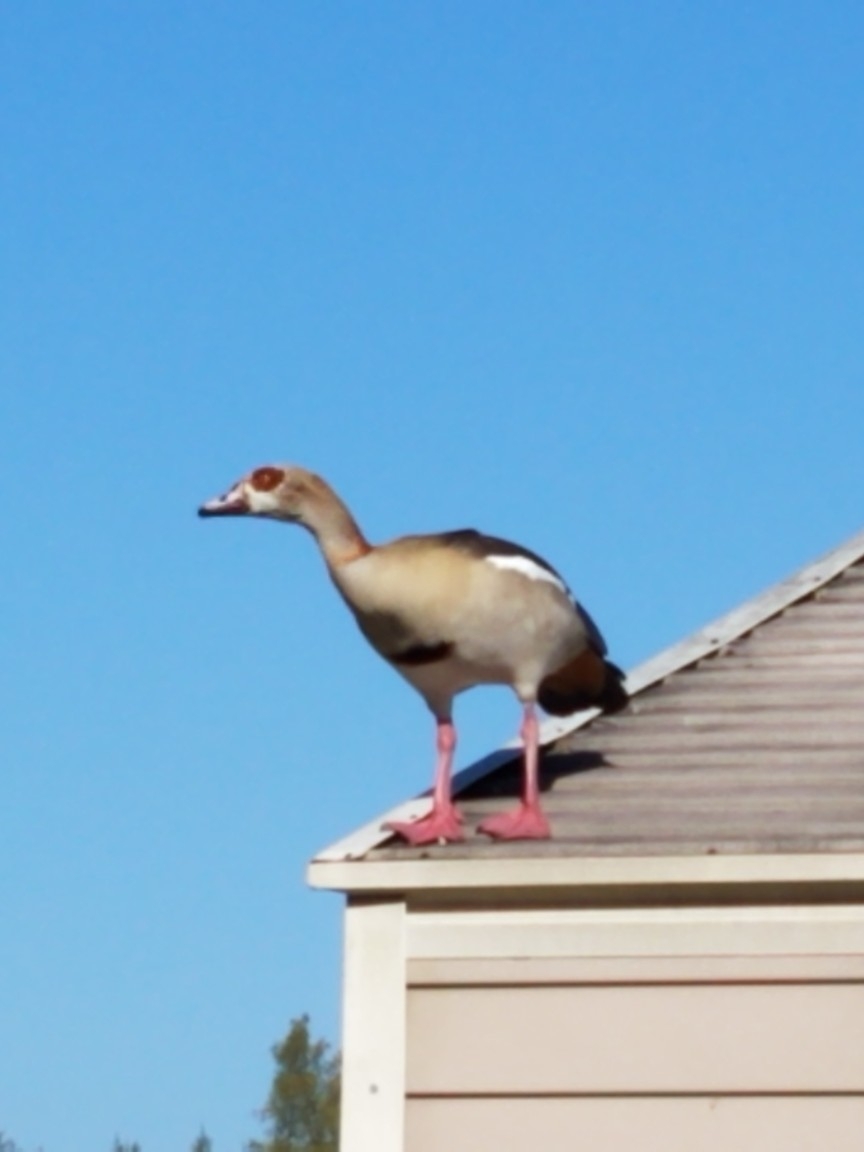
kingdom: Animalia
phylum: Chordata
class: Aves
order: Anseriformes
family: Anatidae
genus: Alopochen
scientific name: Alopochen aegyptiaca
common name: Egyptian goose
